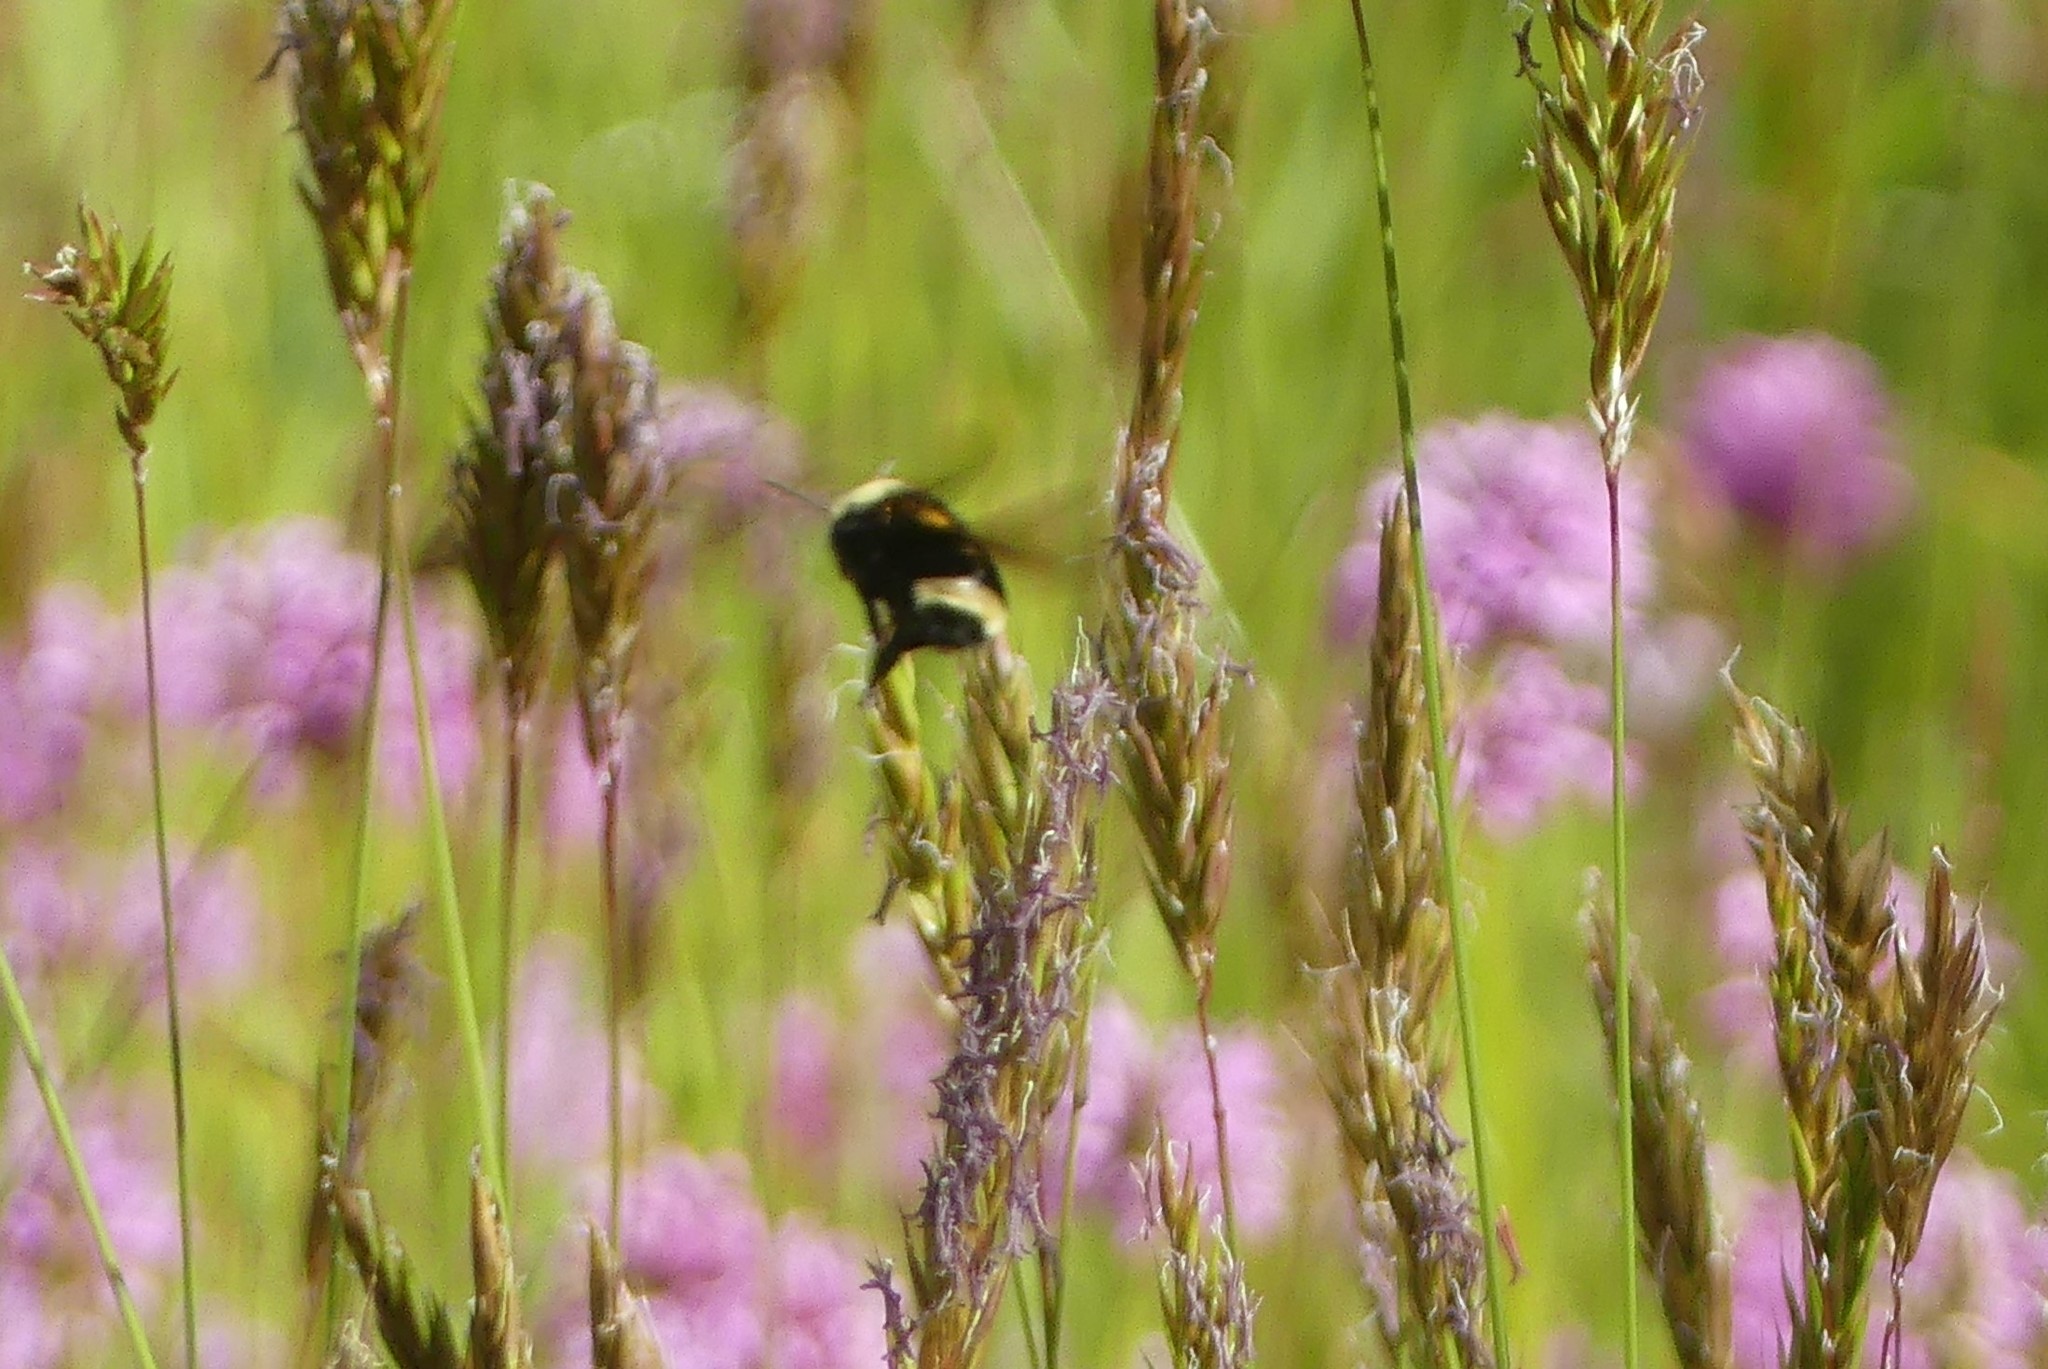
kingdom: Animalia
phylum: Arthropoda
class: Insecta
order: Hymenoptera
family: Apidae
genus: Bombus
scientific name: Bombus vosnesenskii
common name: Vosnesensky bumble bee
